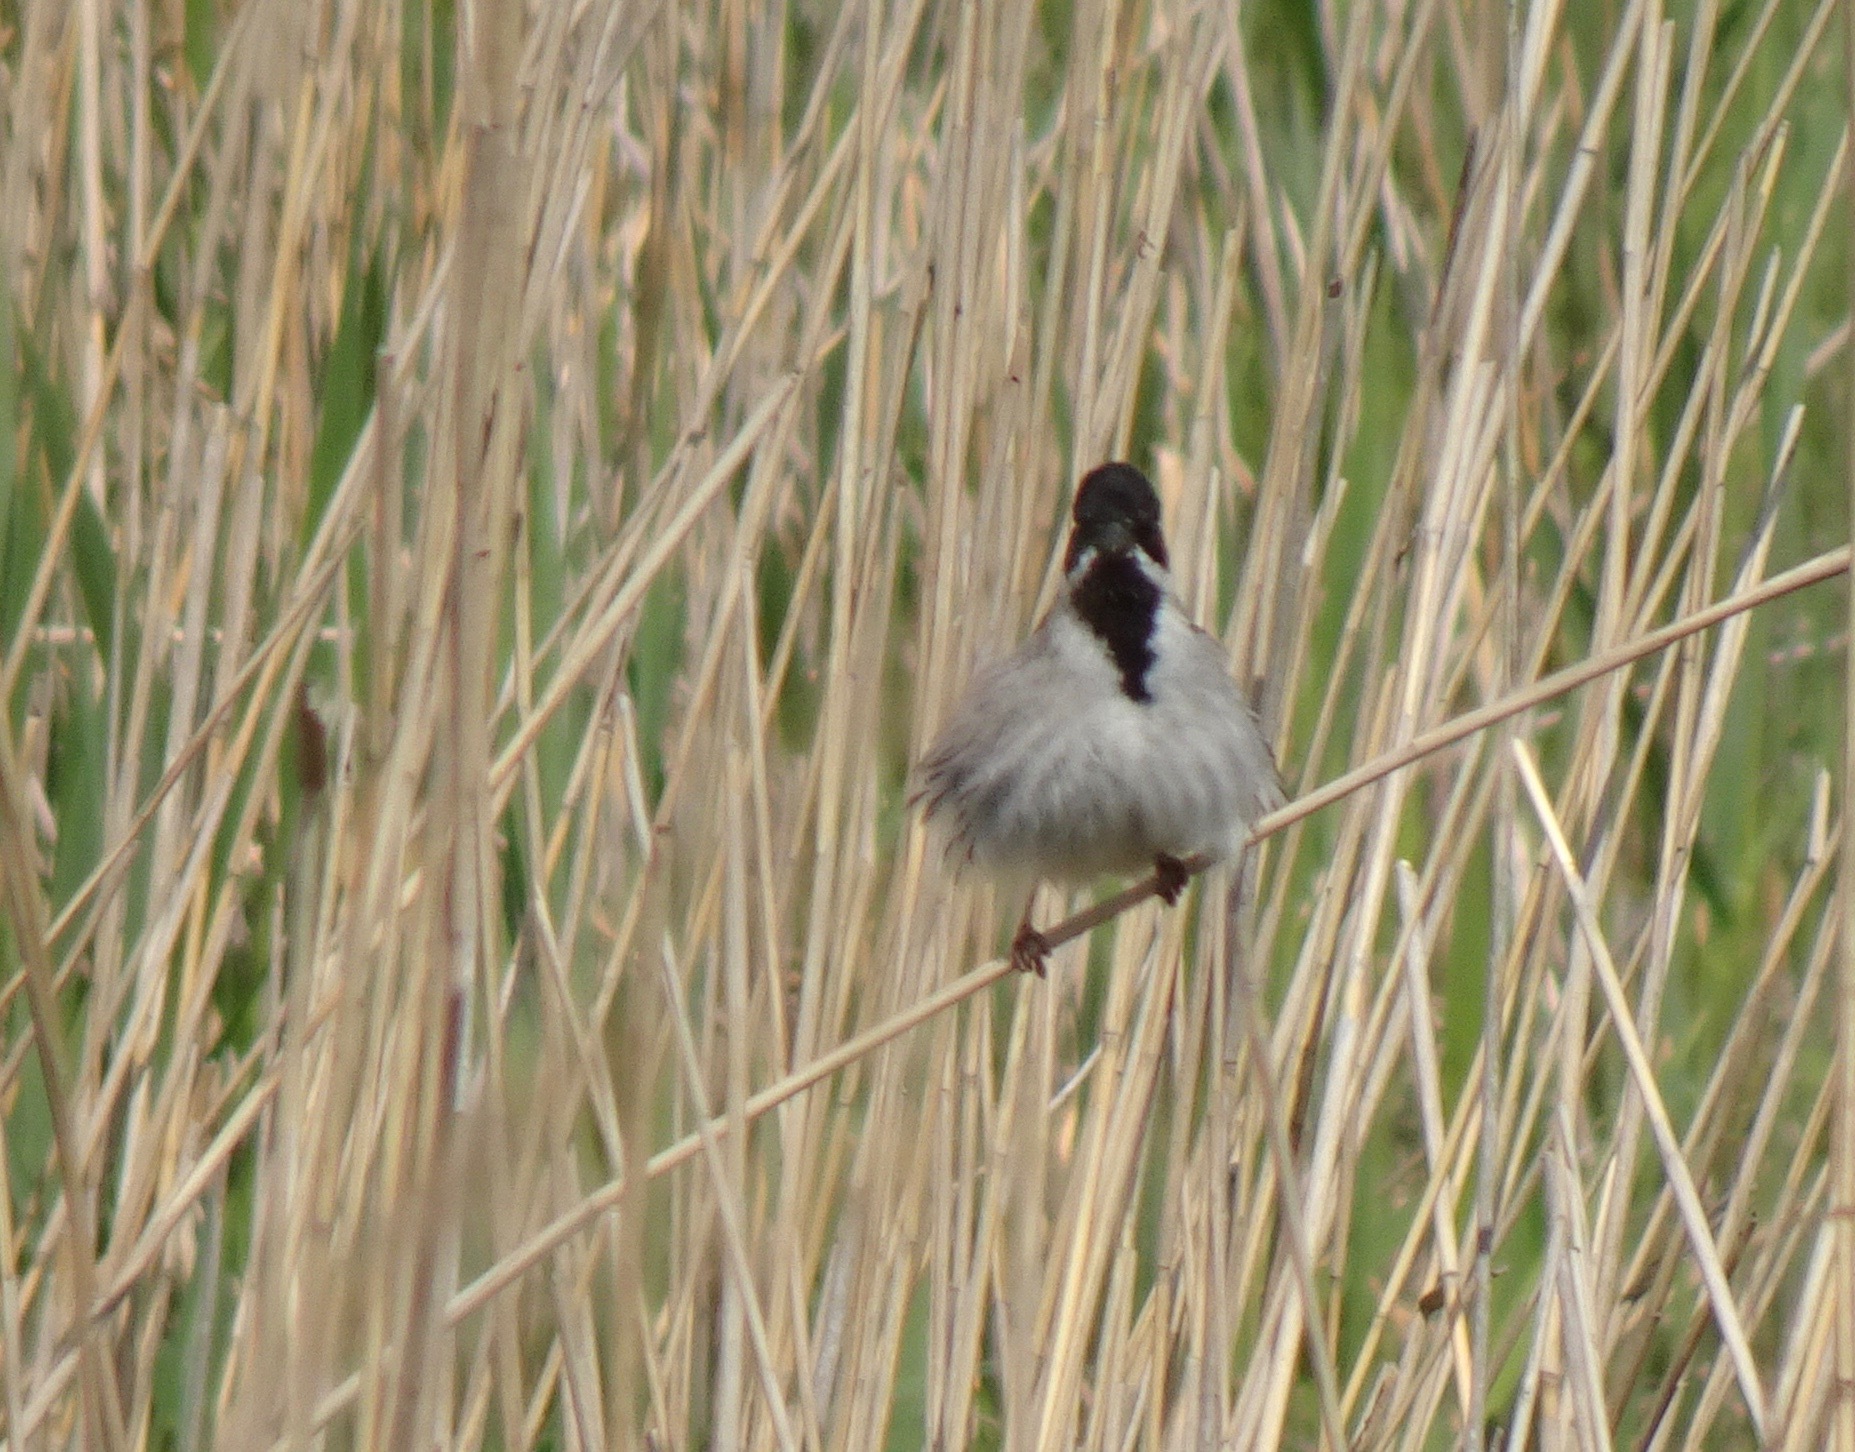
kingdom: Animalia
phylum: Chordata
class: Aves
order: Passeriformes
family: Emberizidae
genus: Emberiza
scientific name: Emberiza schoeniclus
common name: Reed bunting
